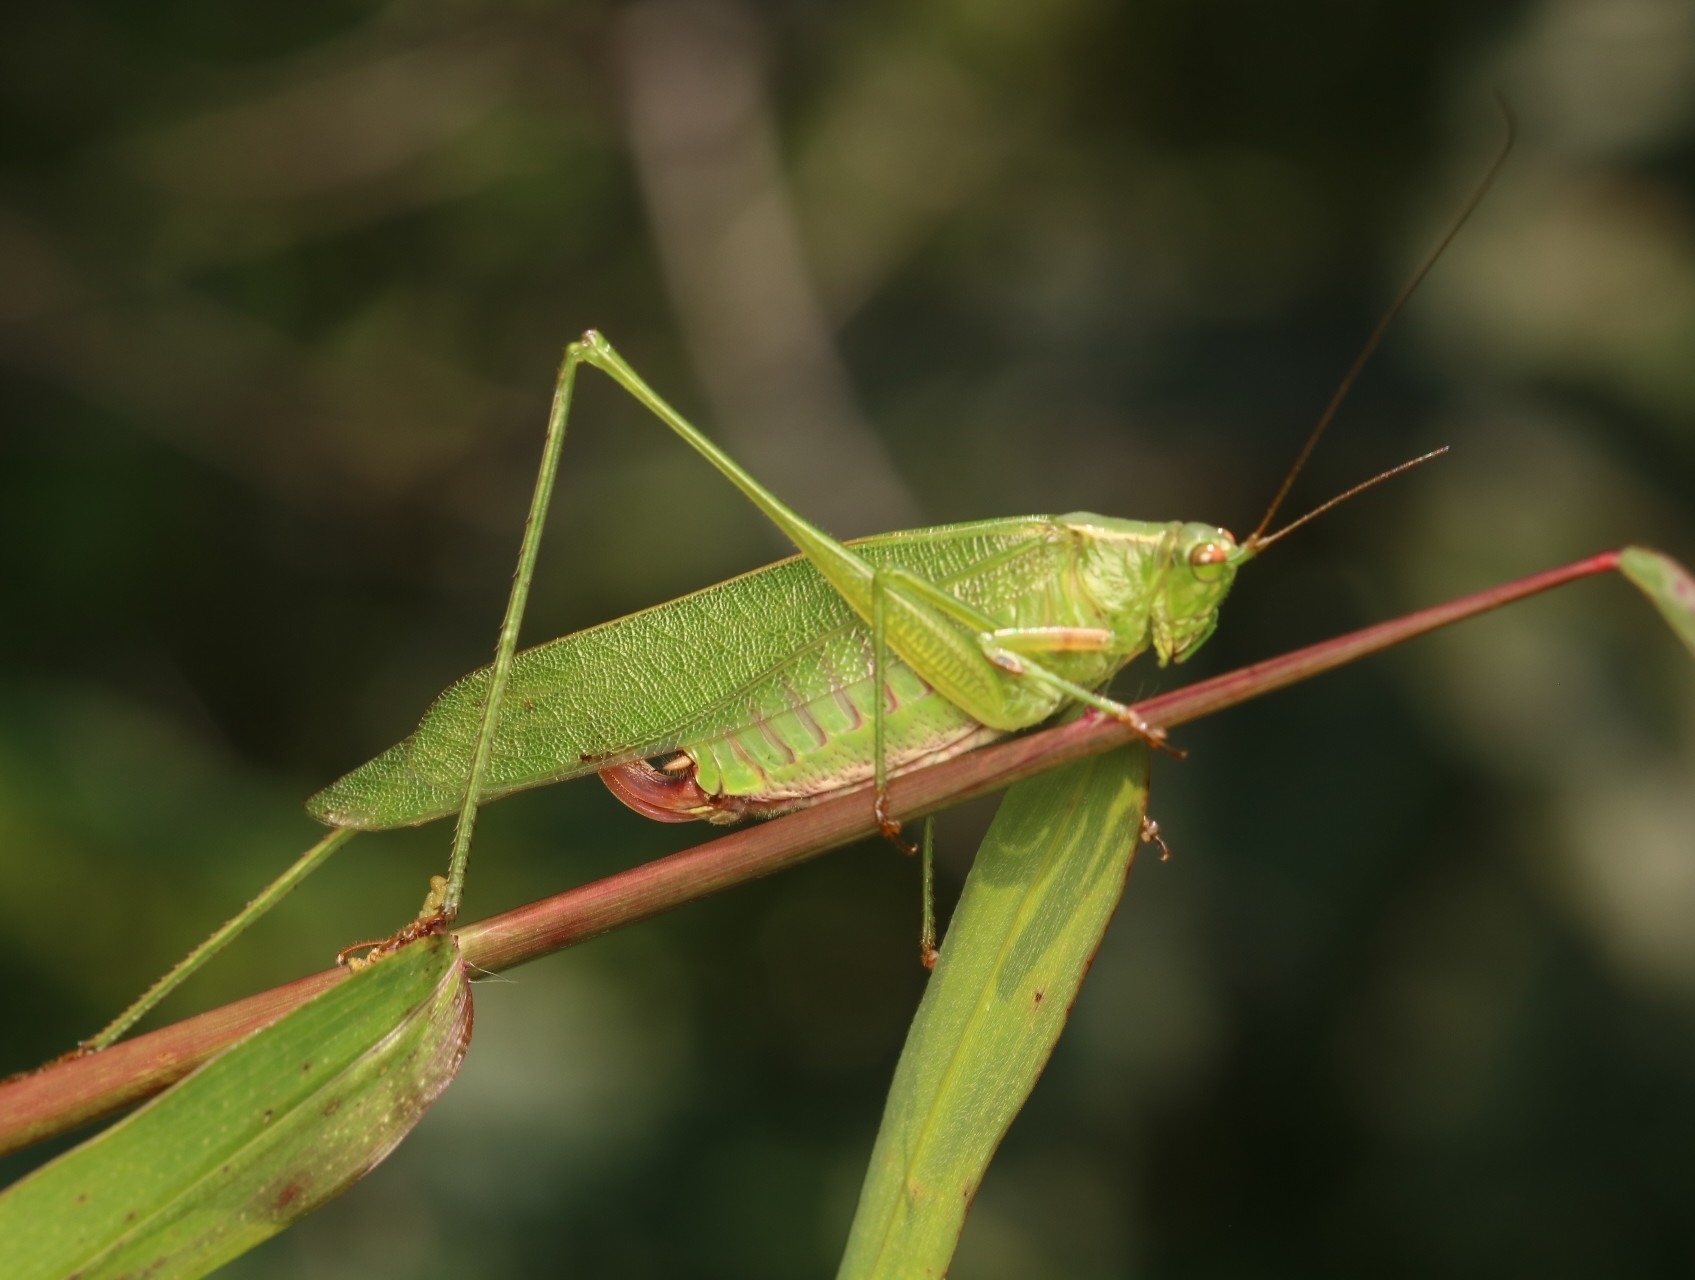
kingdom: Animalia
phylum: Arthropoda
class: Insecta
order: Orthoptera
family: Tettigoniidae
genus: Scudderia
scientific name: Scudderia furcata
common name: Fork-tailed bush katydid
